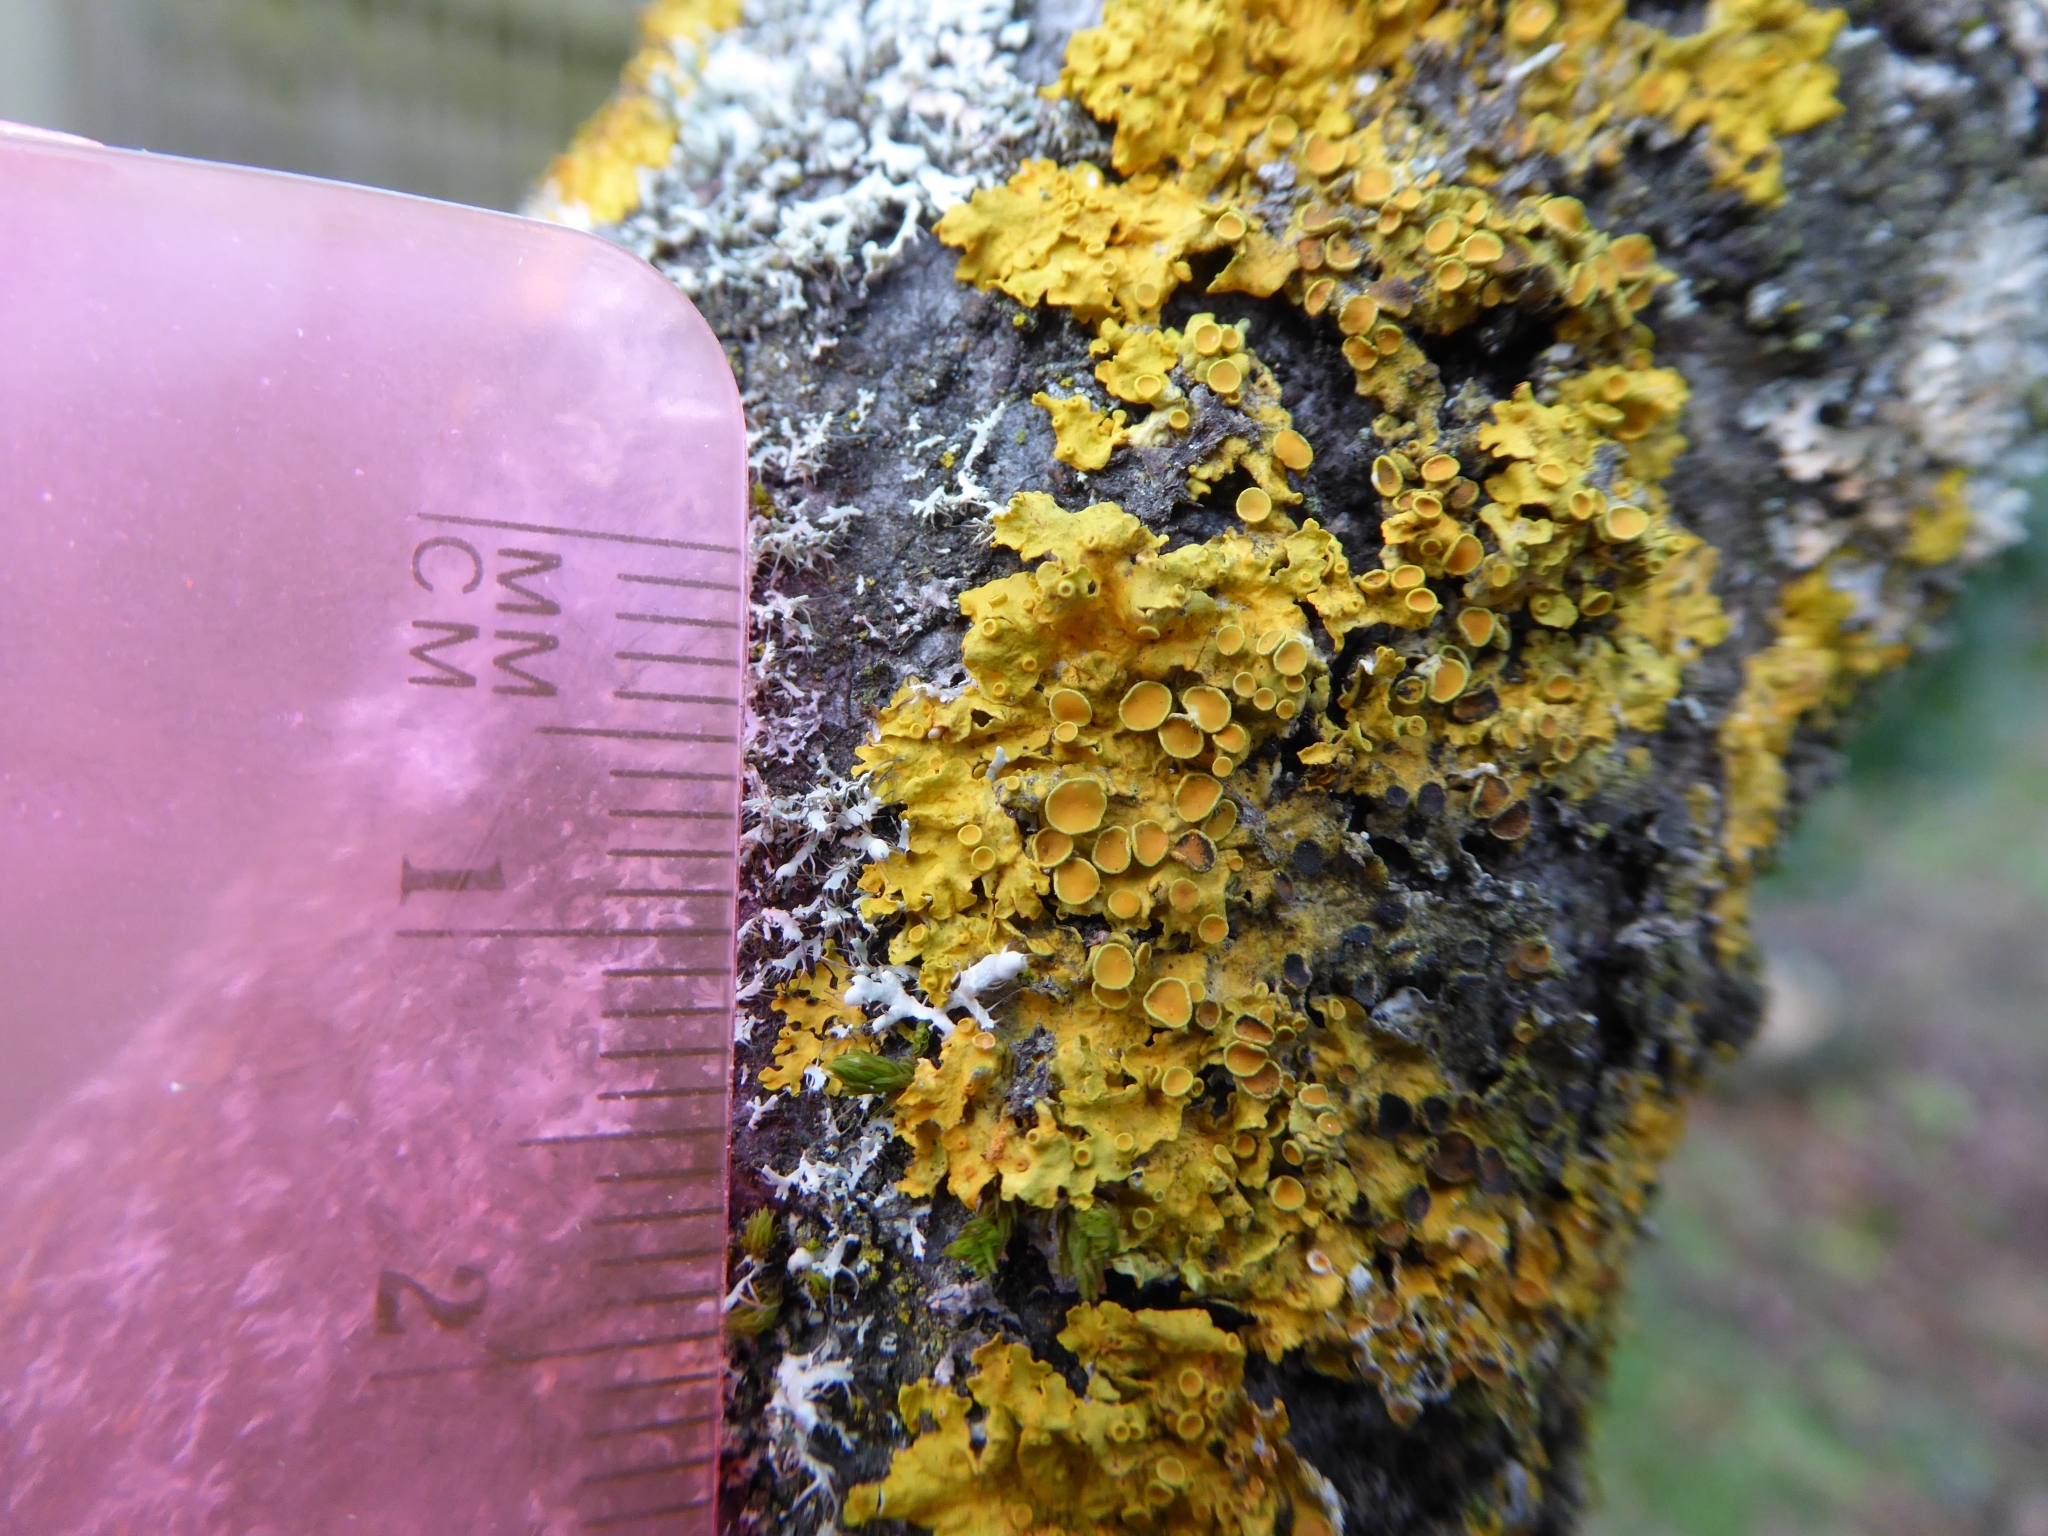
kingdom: Fungi
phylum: Ascomycota
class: Lecanoromycetes
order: Teloschistales
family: Teloschistaceae
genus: Xanthoria
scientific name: Xanthoria parietina
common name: Common orange lichen
